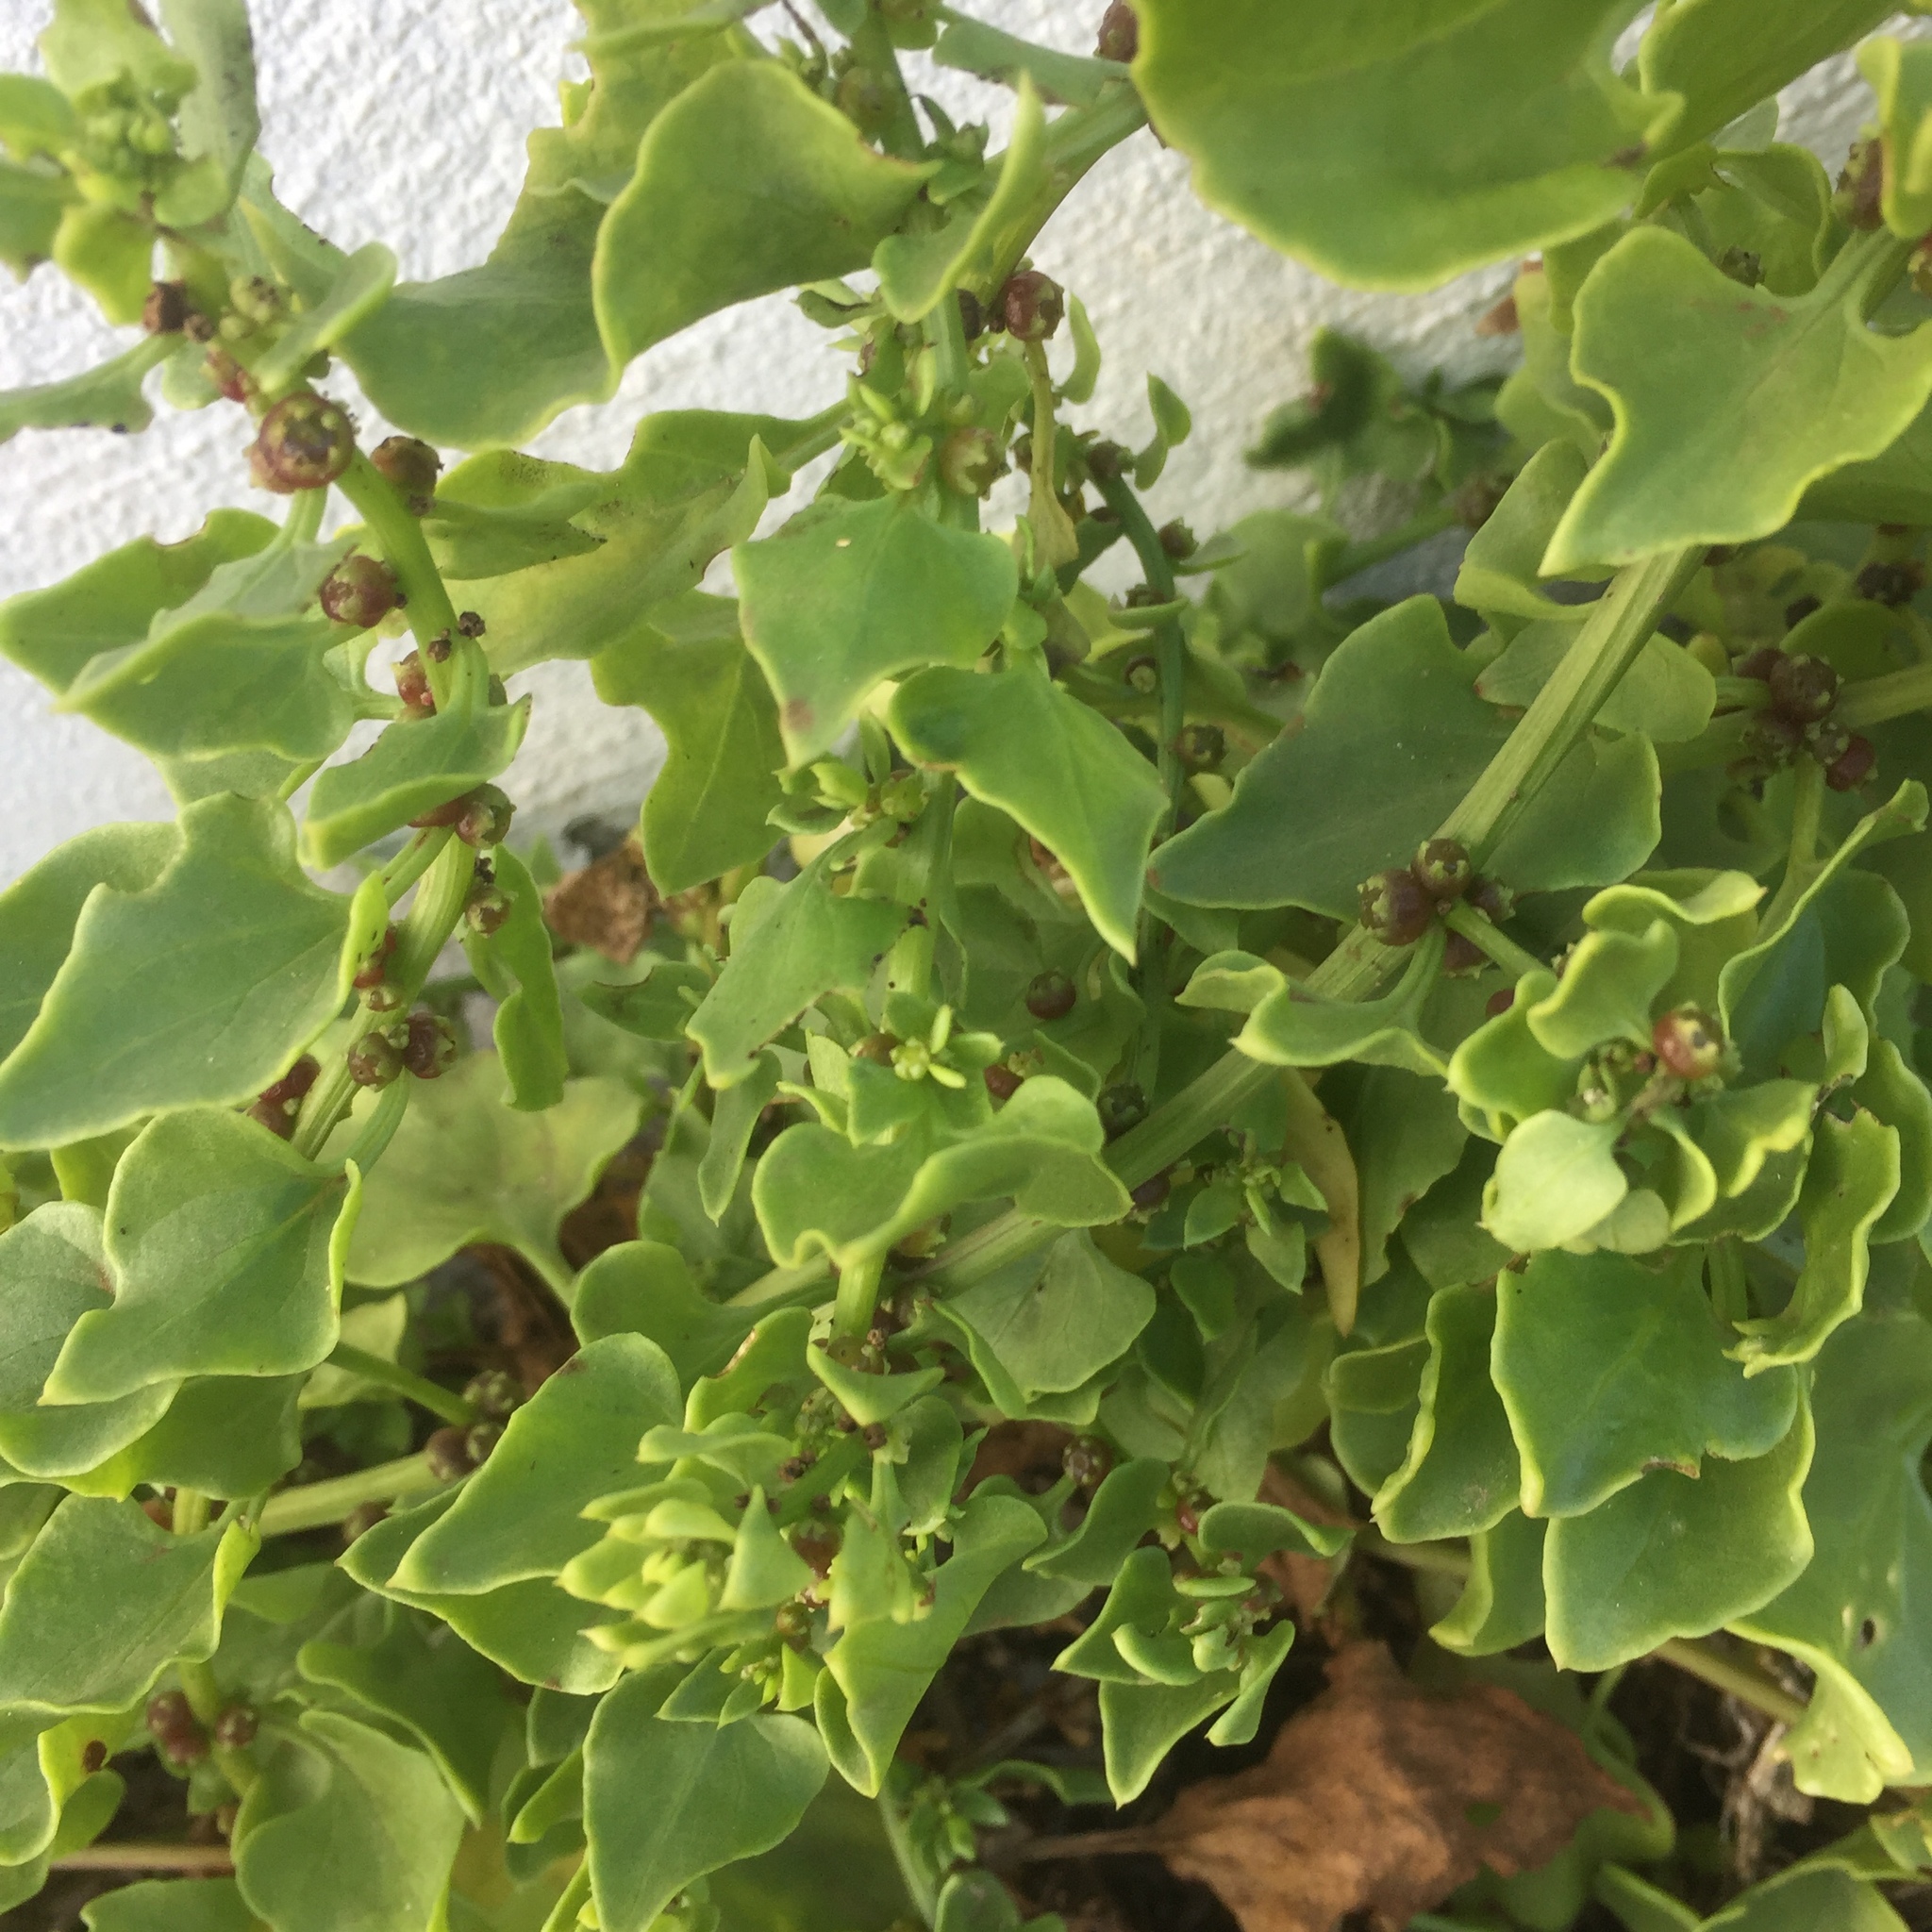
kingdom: Plantae
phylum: Tracheophyta
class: Magnoliopsida
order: Caryophyllales
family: Amaranthaceae
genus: Patellifolia
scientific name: Patellifolia procumbens
